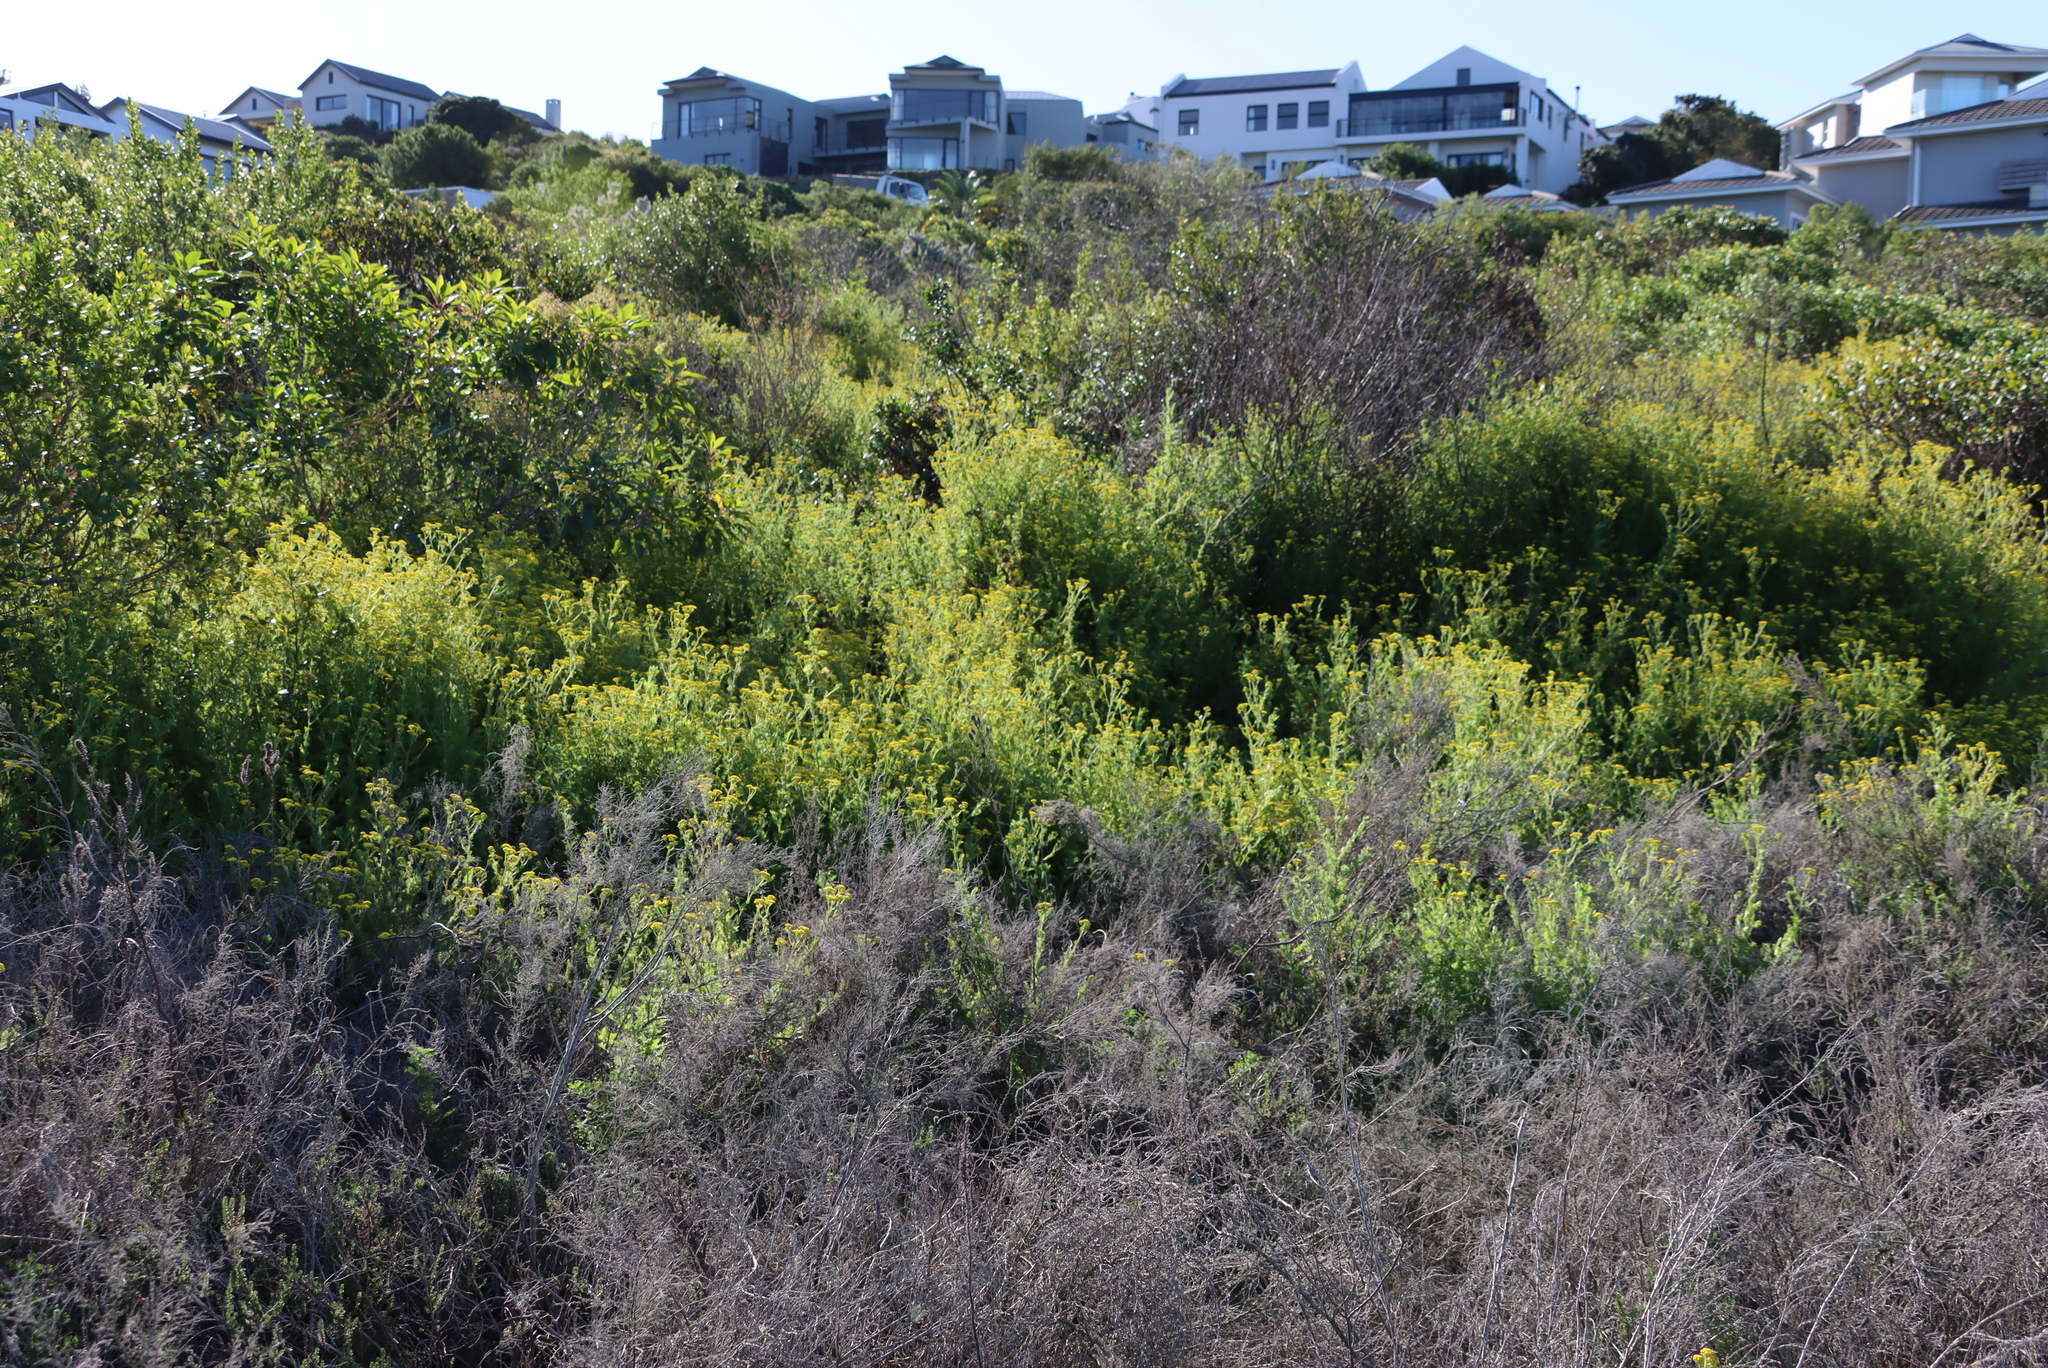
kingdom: Plantae
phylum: Tracheophyta
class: Magnoliopsida
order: Asterales
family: Asteraceae
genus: Hippia
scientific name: Hippia frutescens
